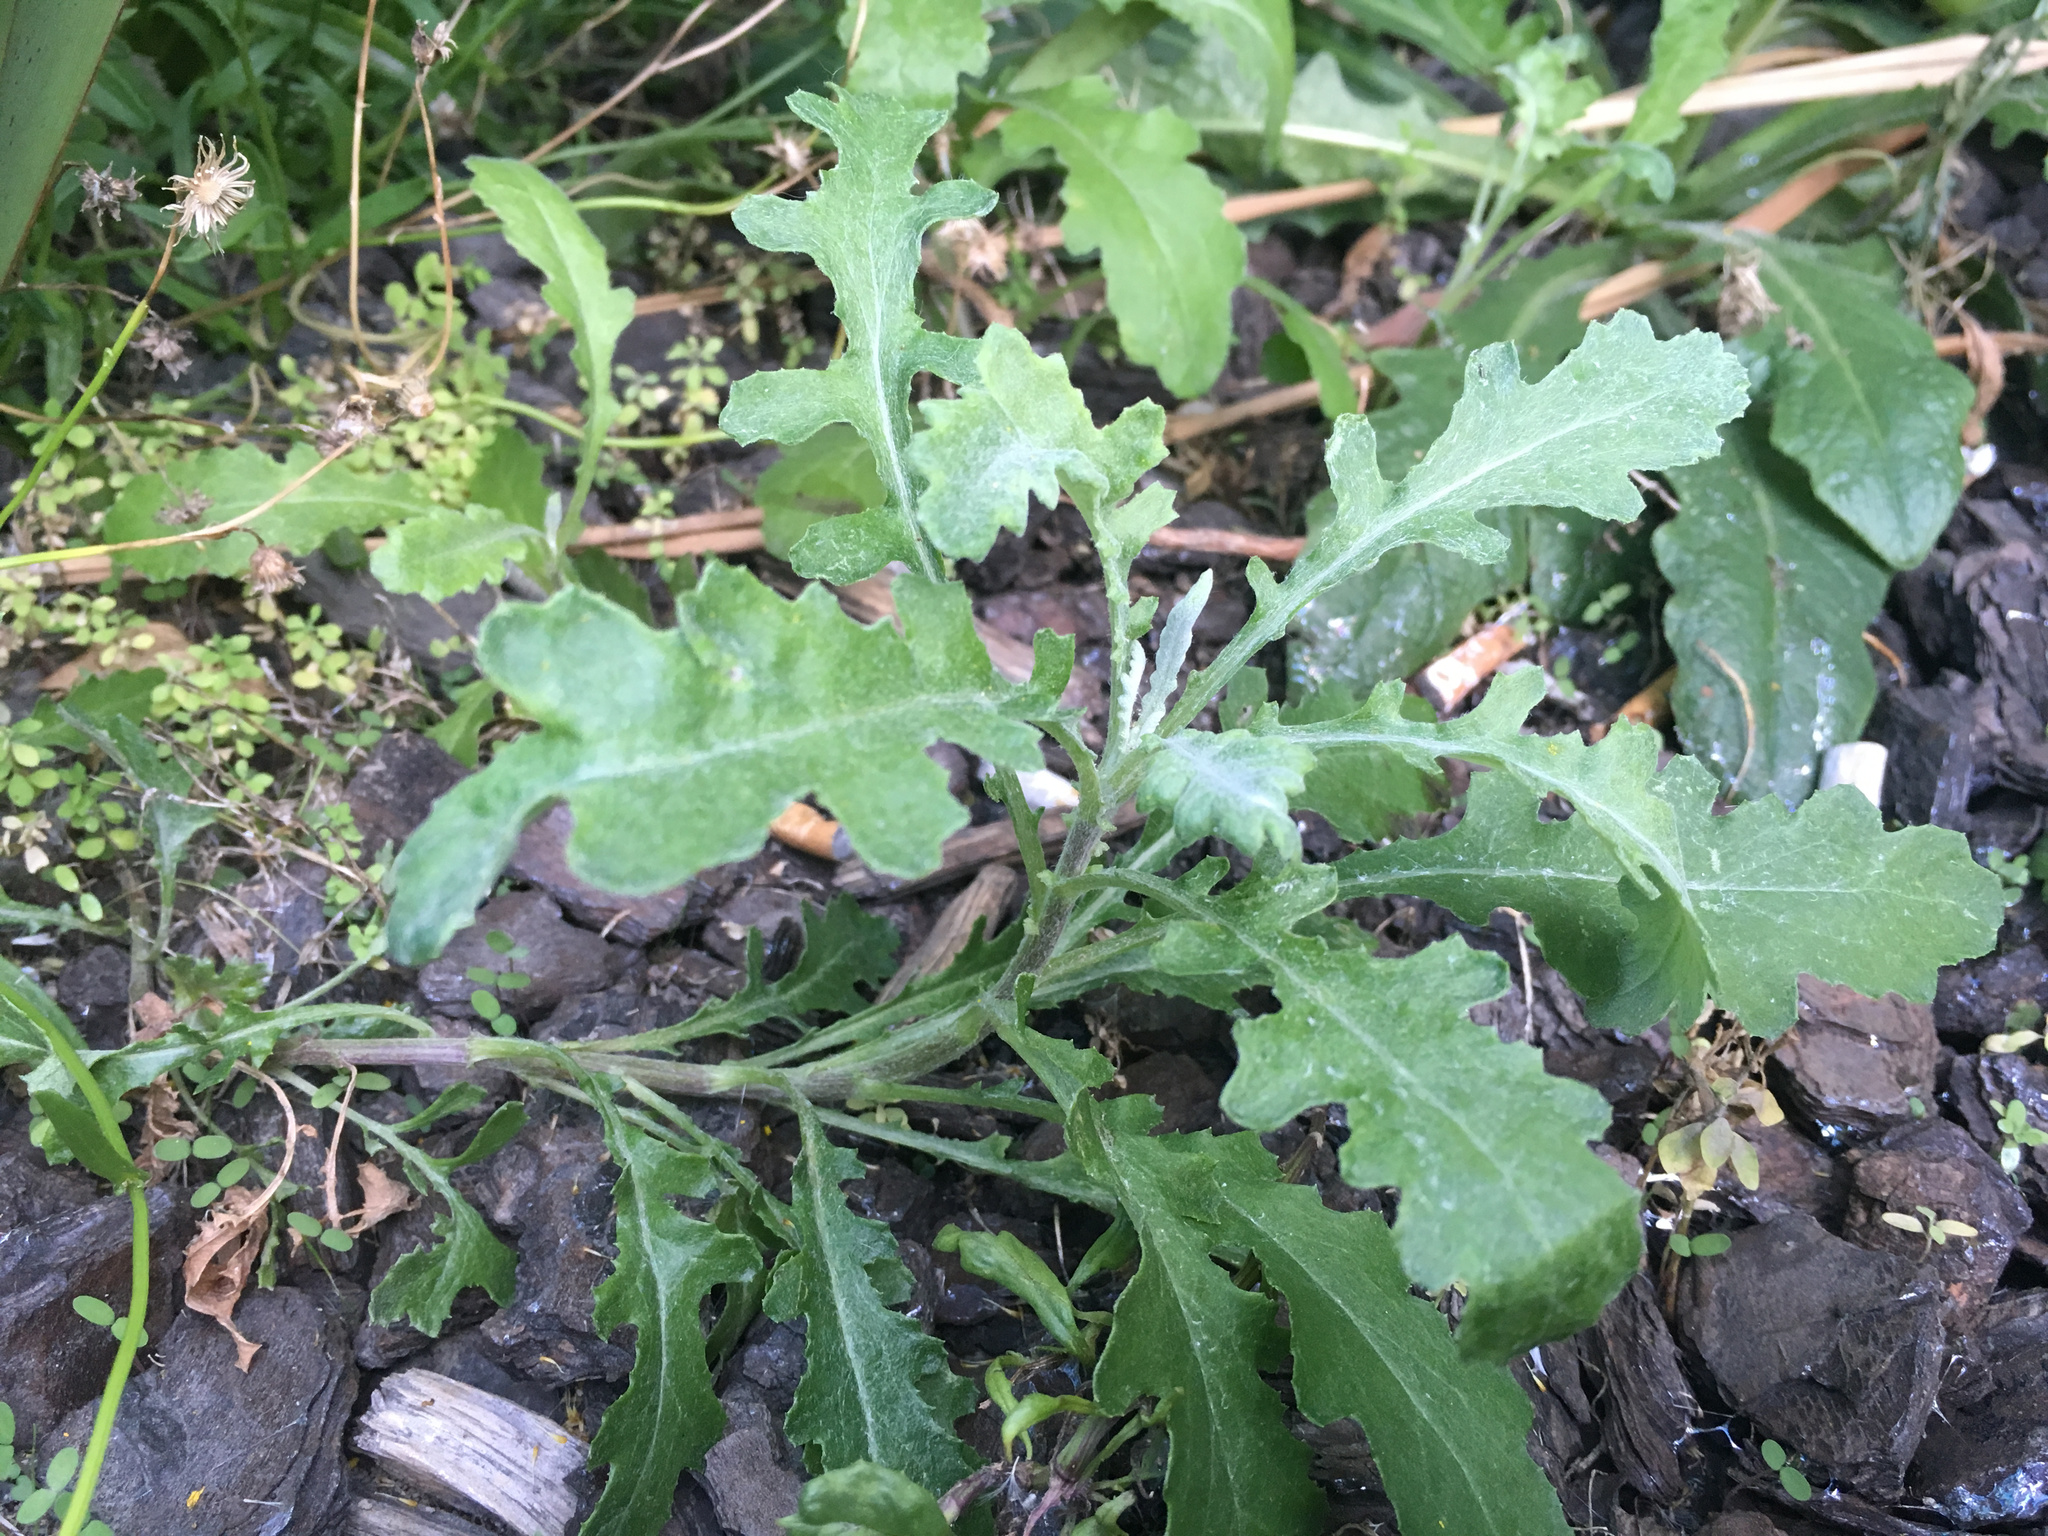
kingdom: Plantae
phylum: Tracheophyta
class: Magnoliopsida
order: Asterales
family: Asteraceae
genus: Senecio
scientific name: Senecio glomeratus
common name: Cutleaf burnweed
